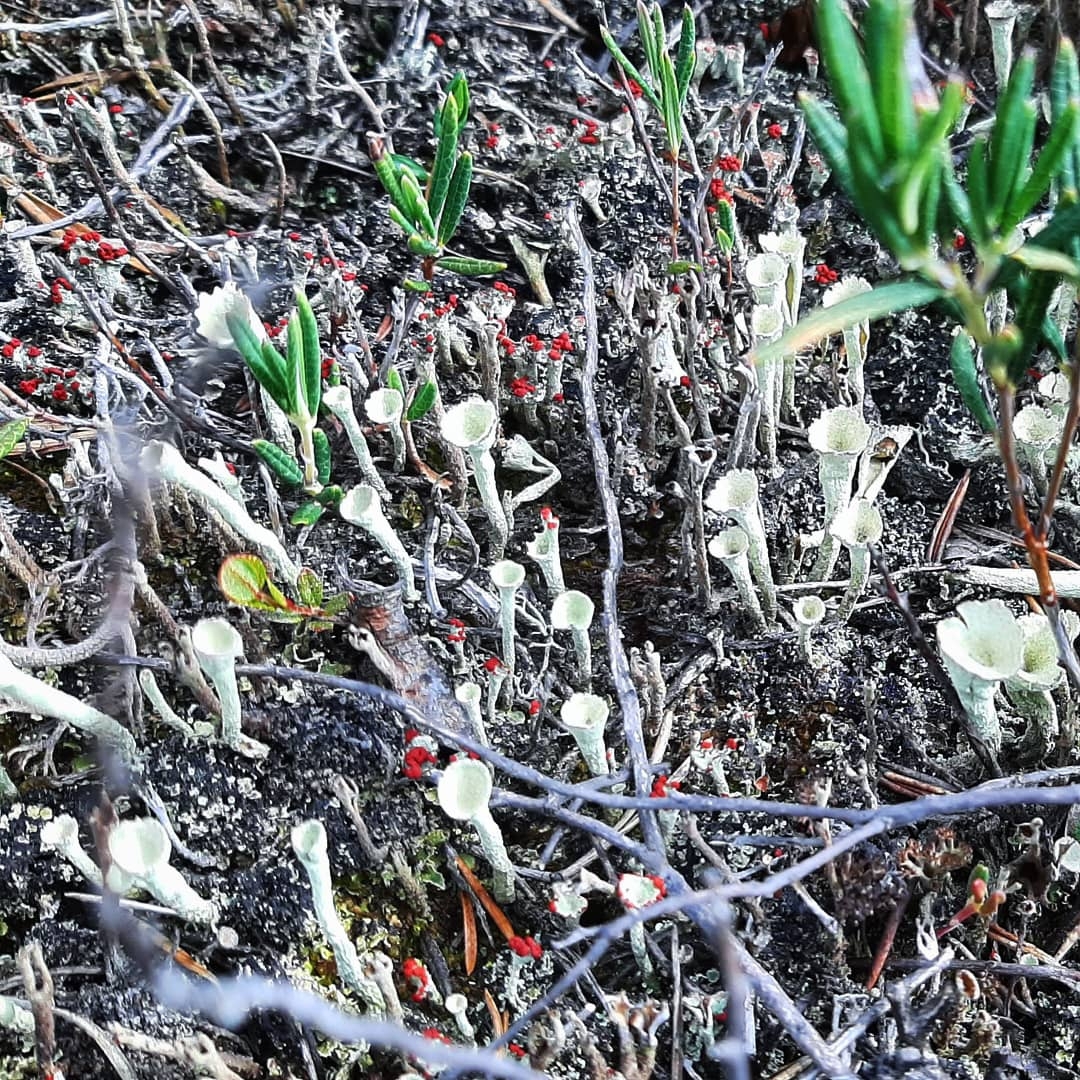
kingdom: Fungi
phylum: Ascomycota
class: Lecanoromycetes
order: Lecanorales
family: Cladoniaceae
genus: Cladonia
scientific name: Cladonia deformis
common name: Lesser sulphur-cup lichen
